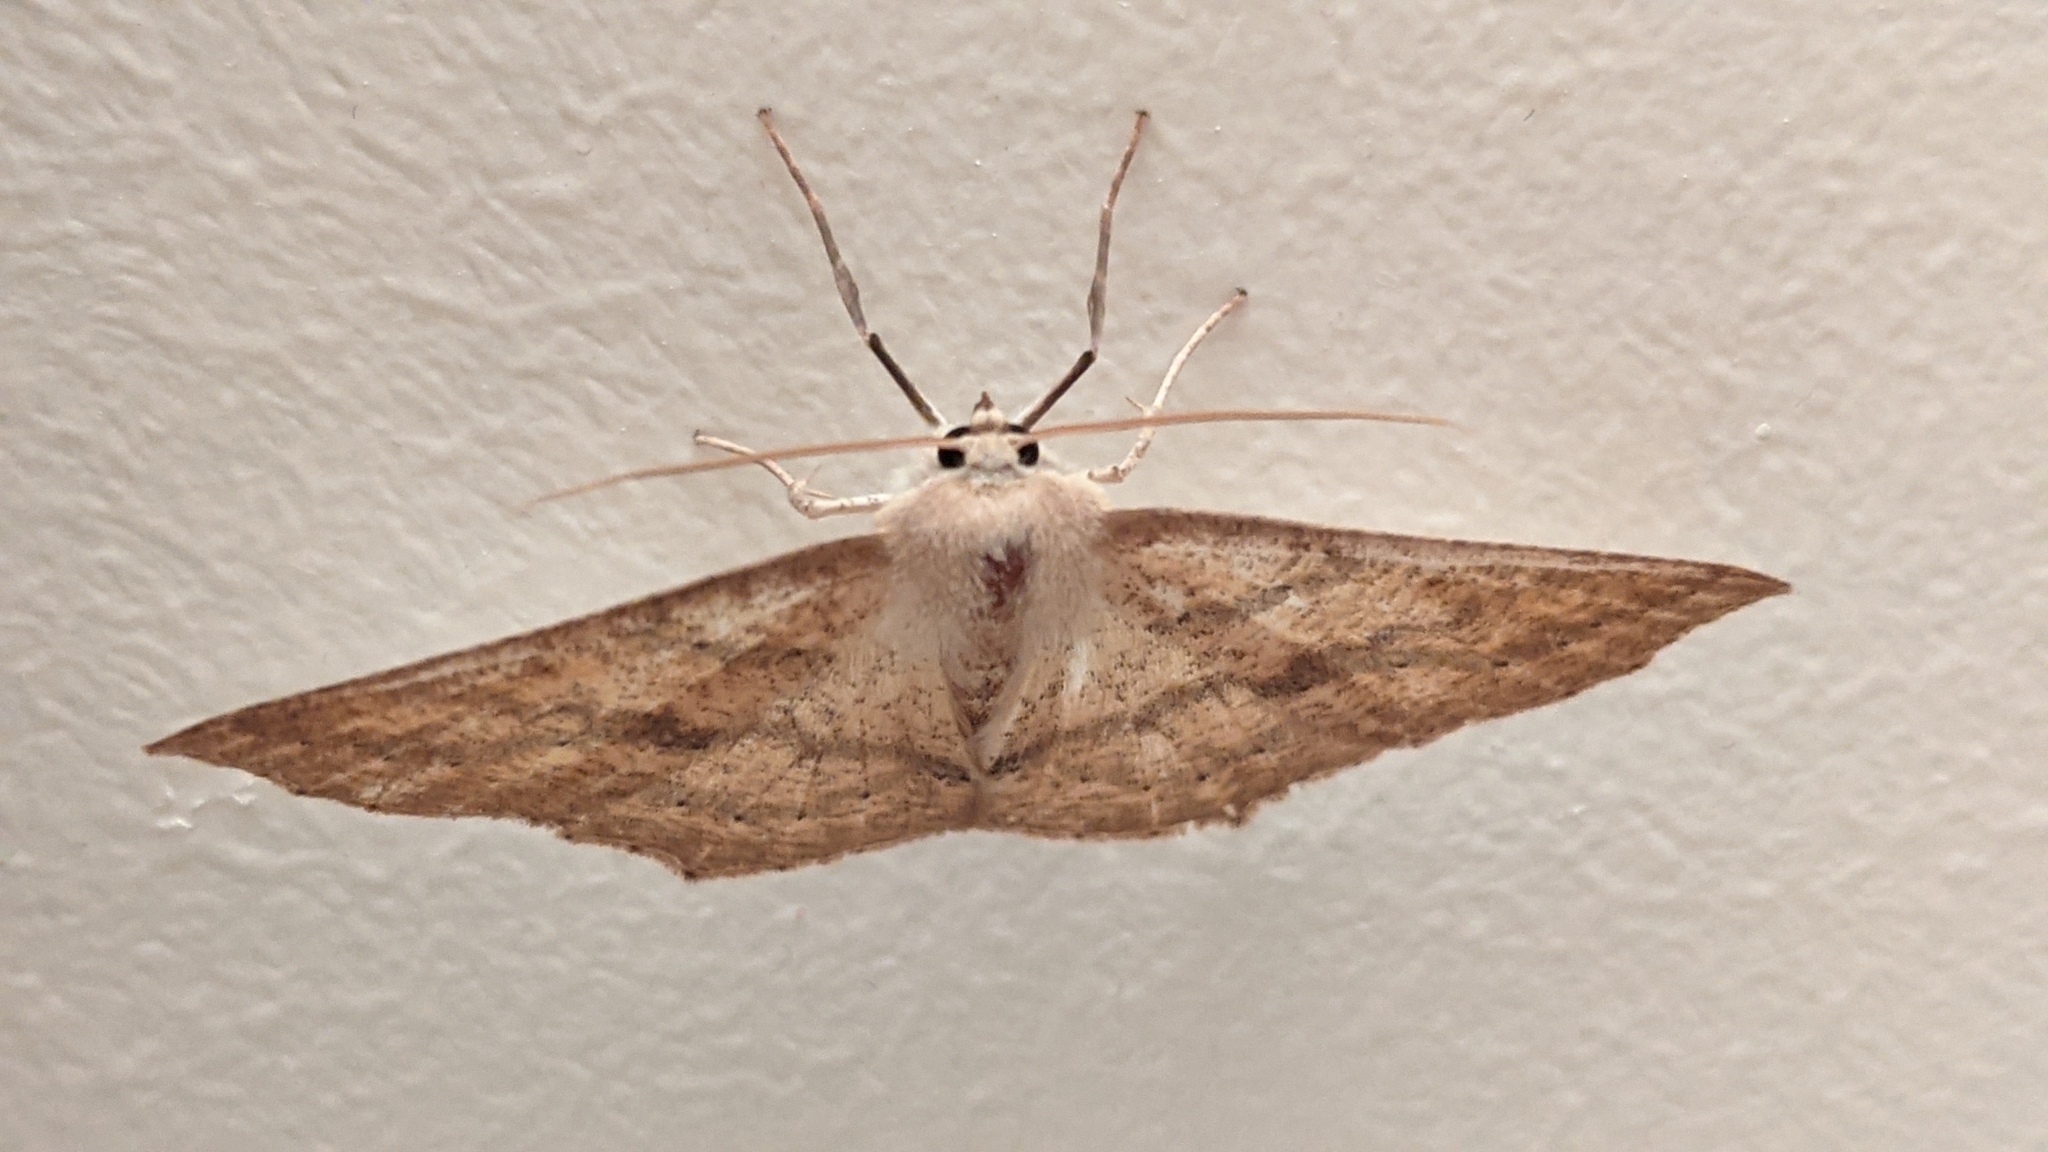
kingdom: Animalia
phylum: Arthropoda
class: Insecta
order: Lepidoptera
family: Geometridae
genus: Sabulodes
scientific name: Sabulodes aegrotata
